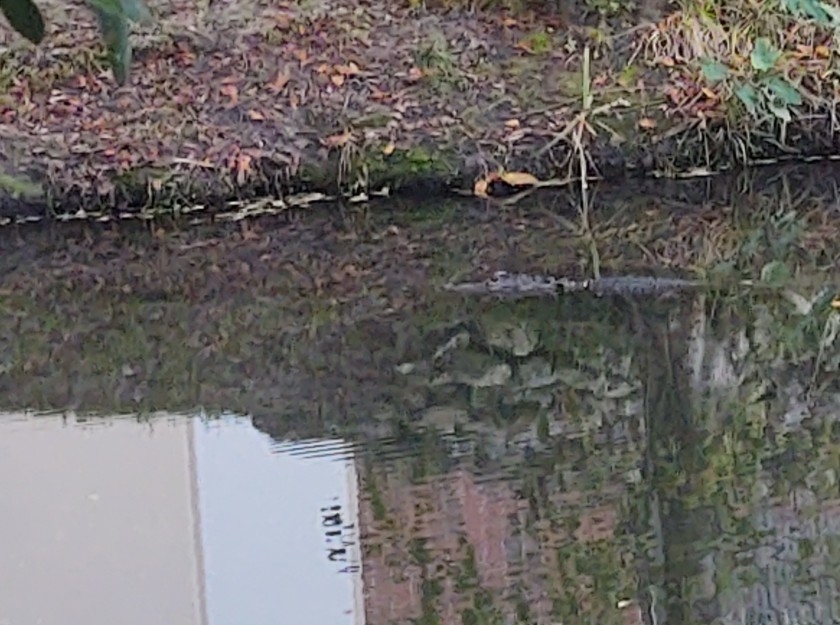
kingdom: Animalia
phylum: Chordata
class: Crocodylia
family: Alligatoridae
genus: Alligator
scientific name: Alligator mississippiensis
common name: American alligator
